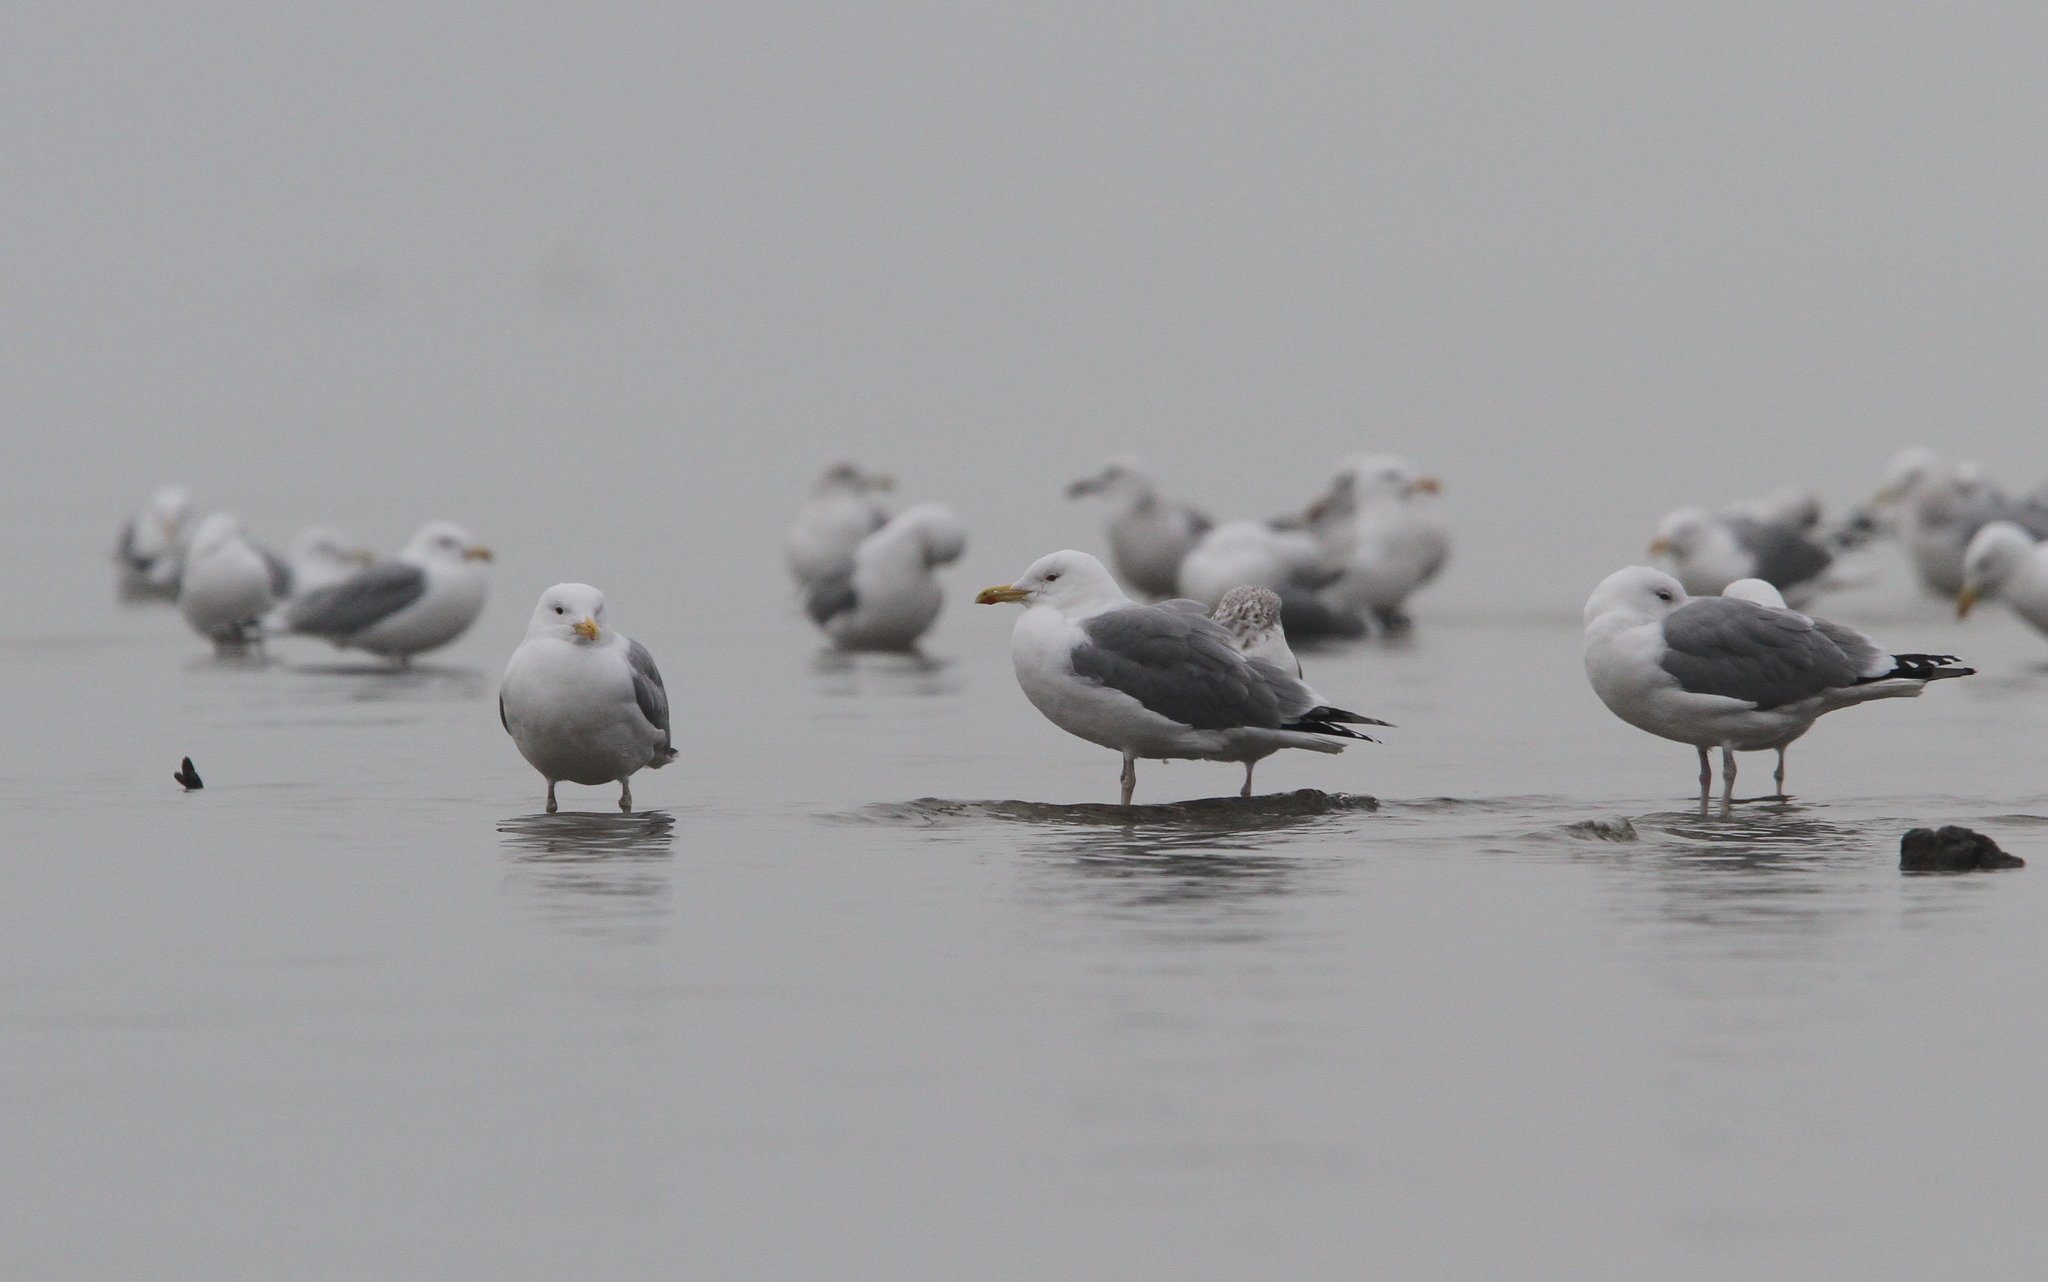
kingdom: Animalia
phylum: Chordata
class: Aves
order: Charadriiformes
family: Laridae
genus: Larus
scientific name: Larus cachinnans
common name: Caspian gull
